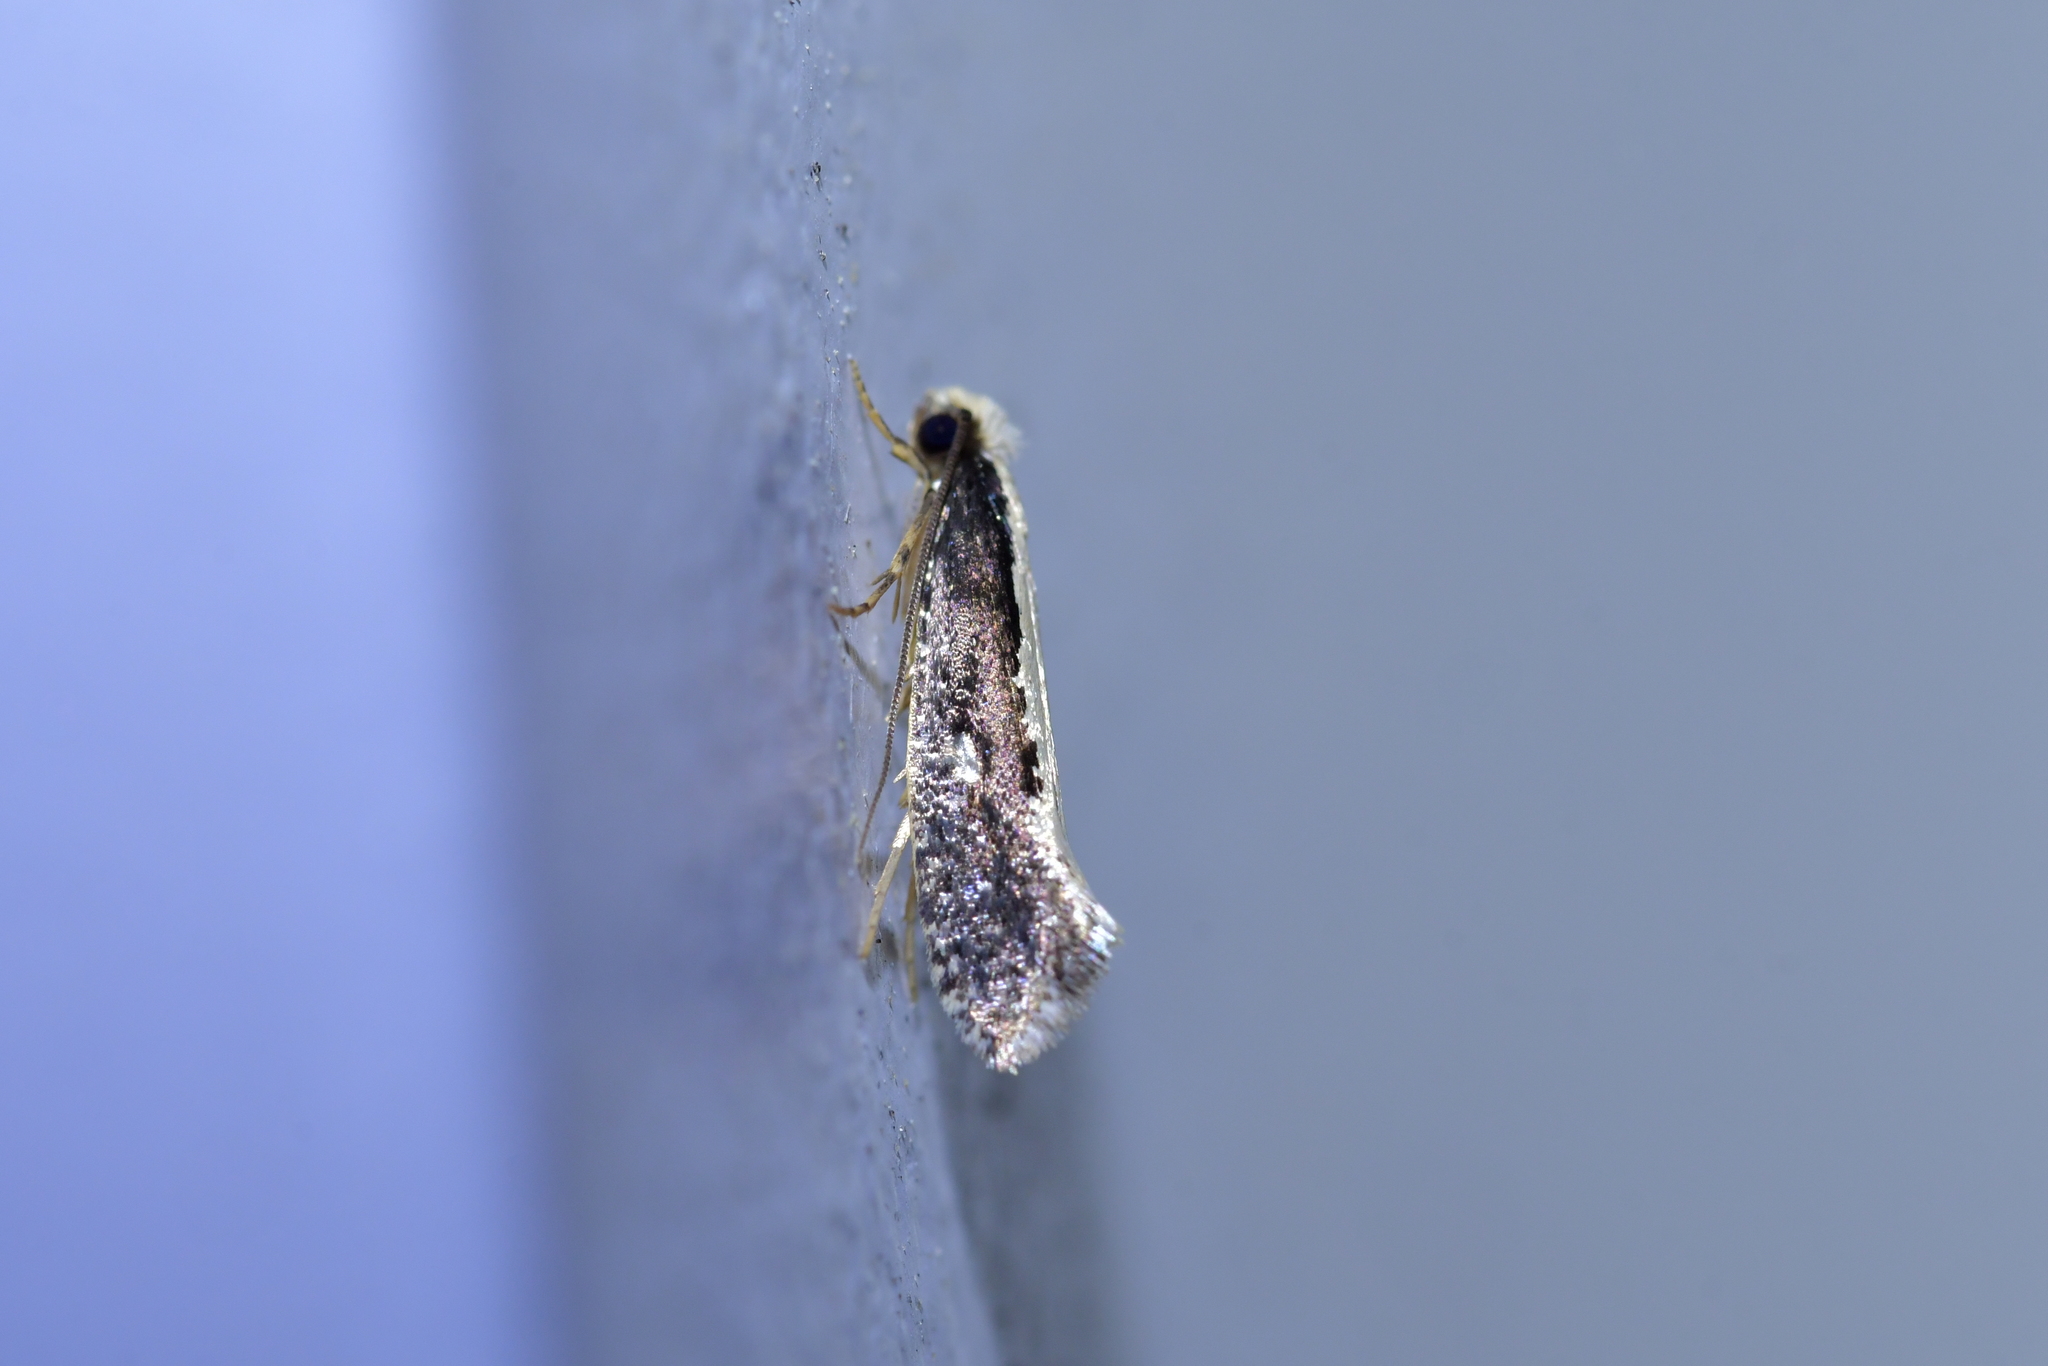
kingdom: Animalia
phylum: Arthropoda
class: Insecta
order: Lepidoptera
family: Tineidae
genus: Monopis
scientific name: Monopis ethelella
